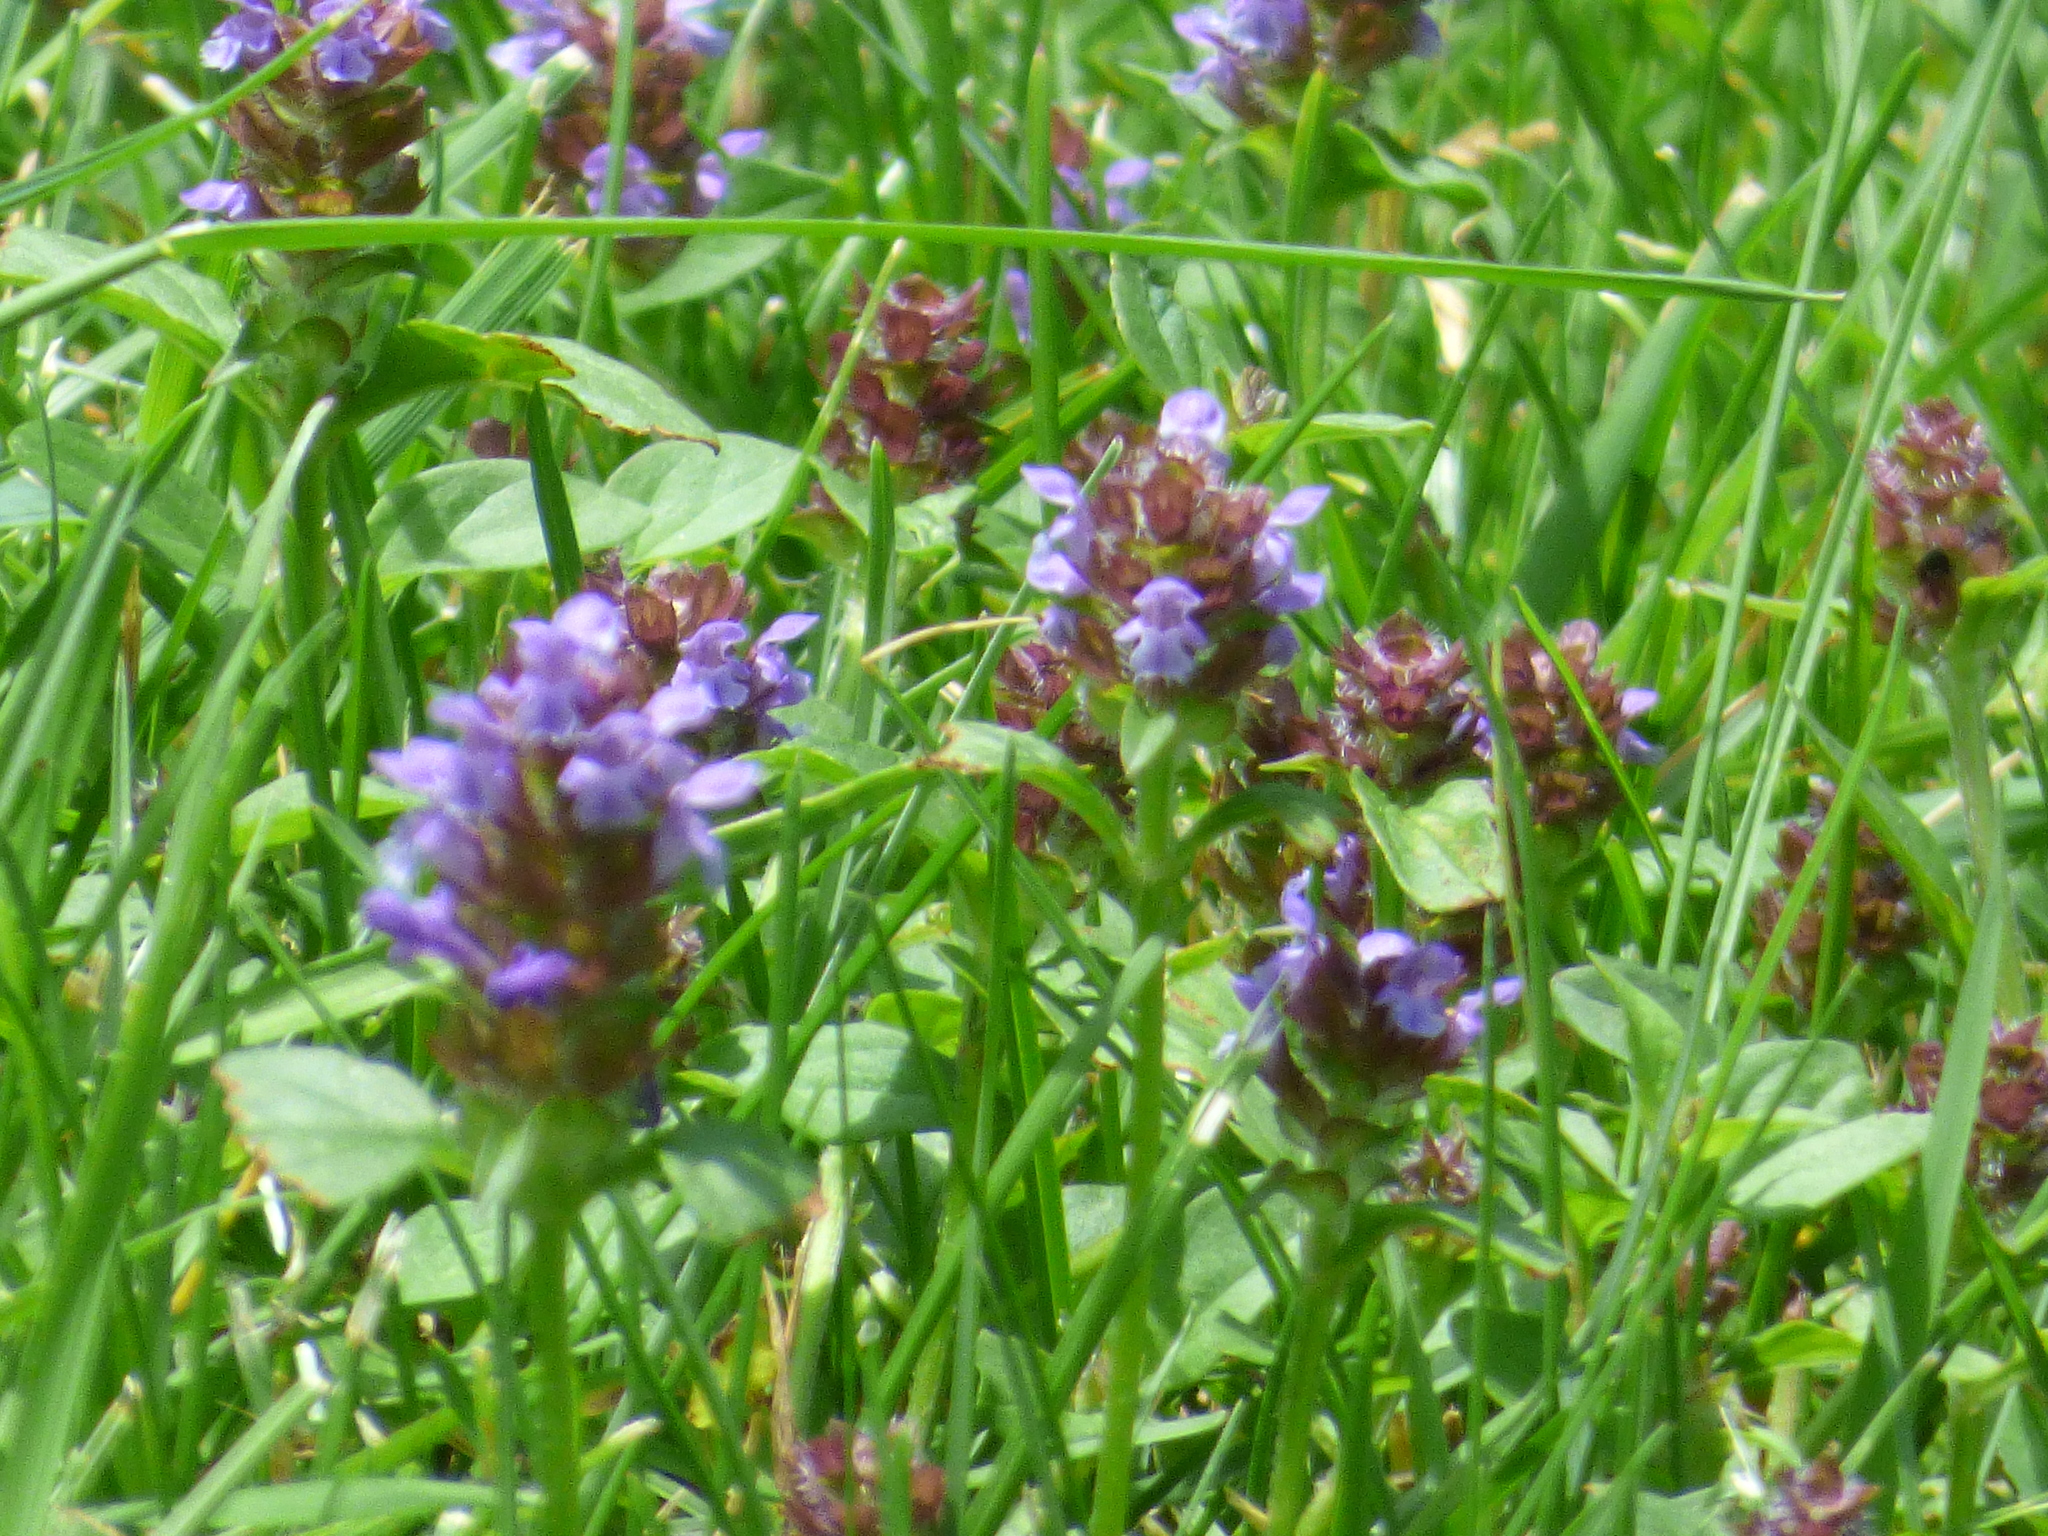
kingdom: Plantae
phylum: Tracheophyta
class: Magnoliopsida
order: Lamiales
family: Lamiaceae
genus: Prunella
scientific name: Prunella vulgaris
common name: Heal-all
